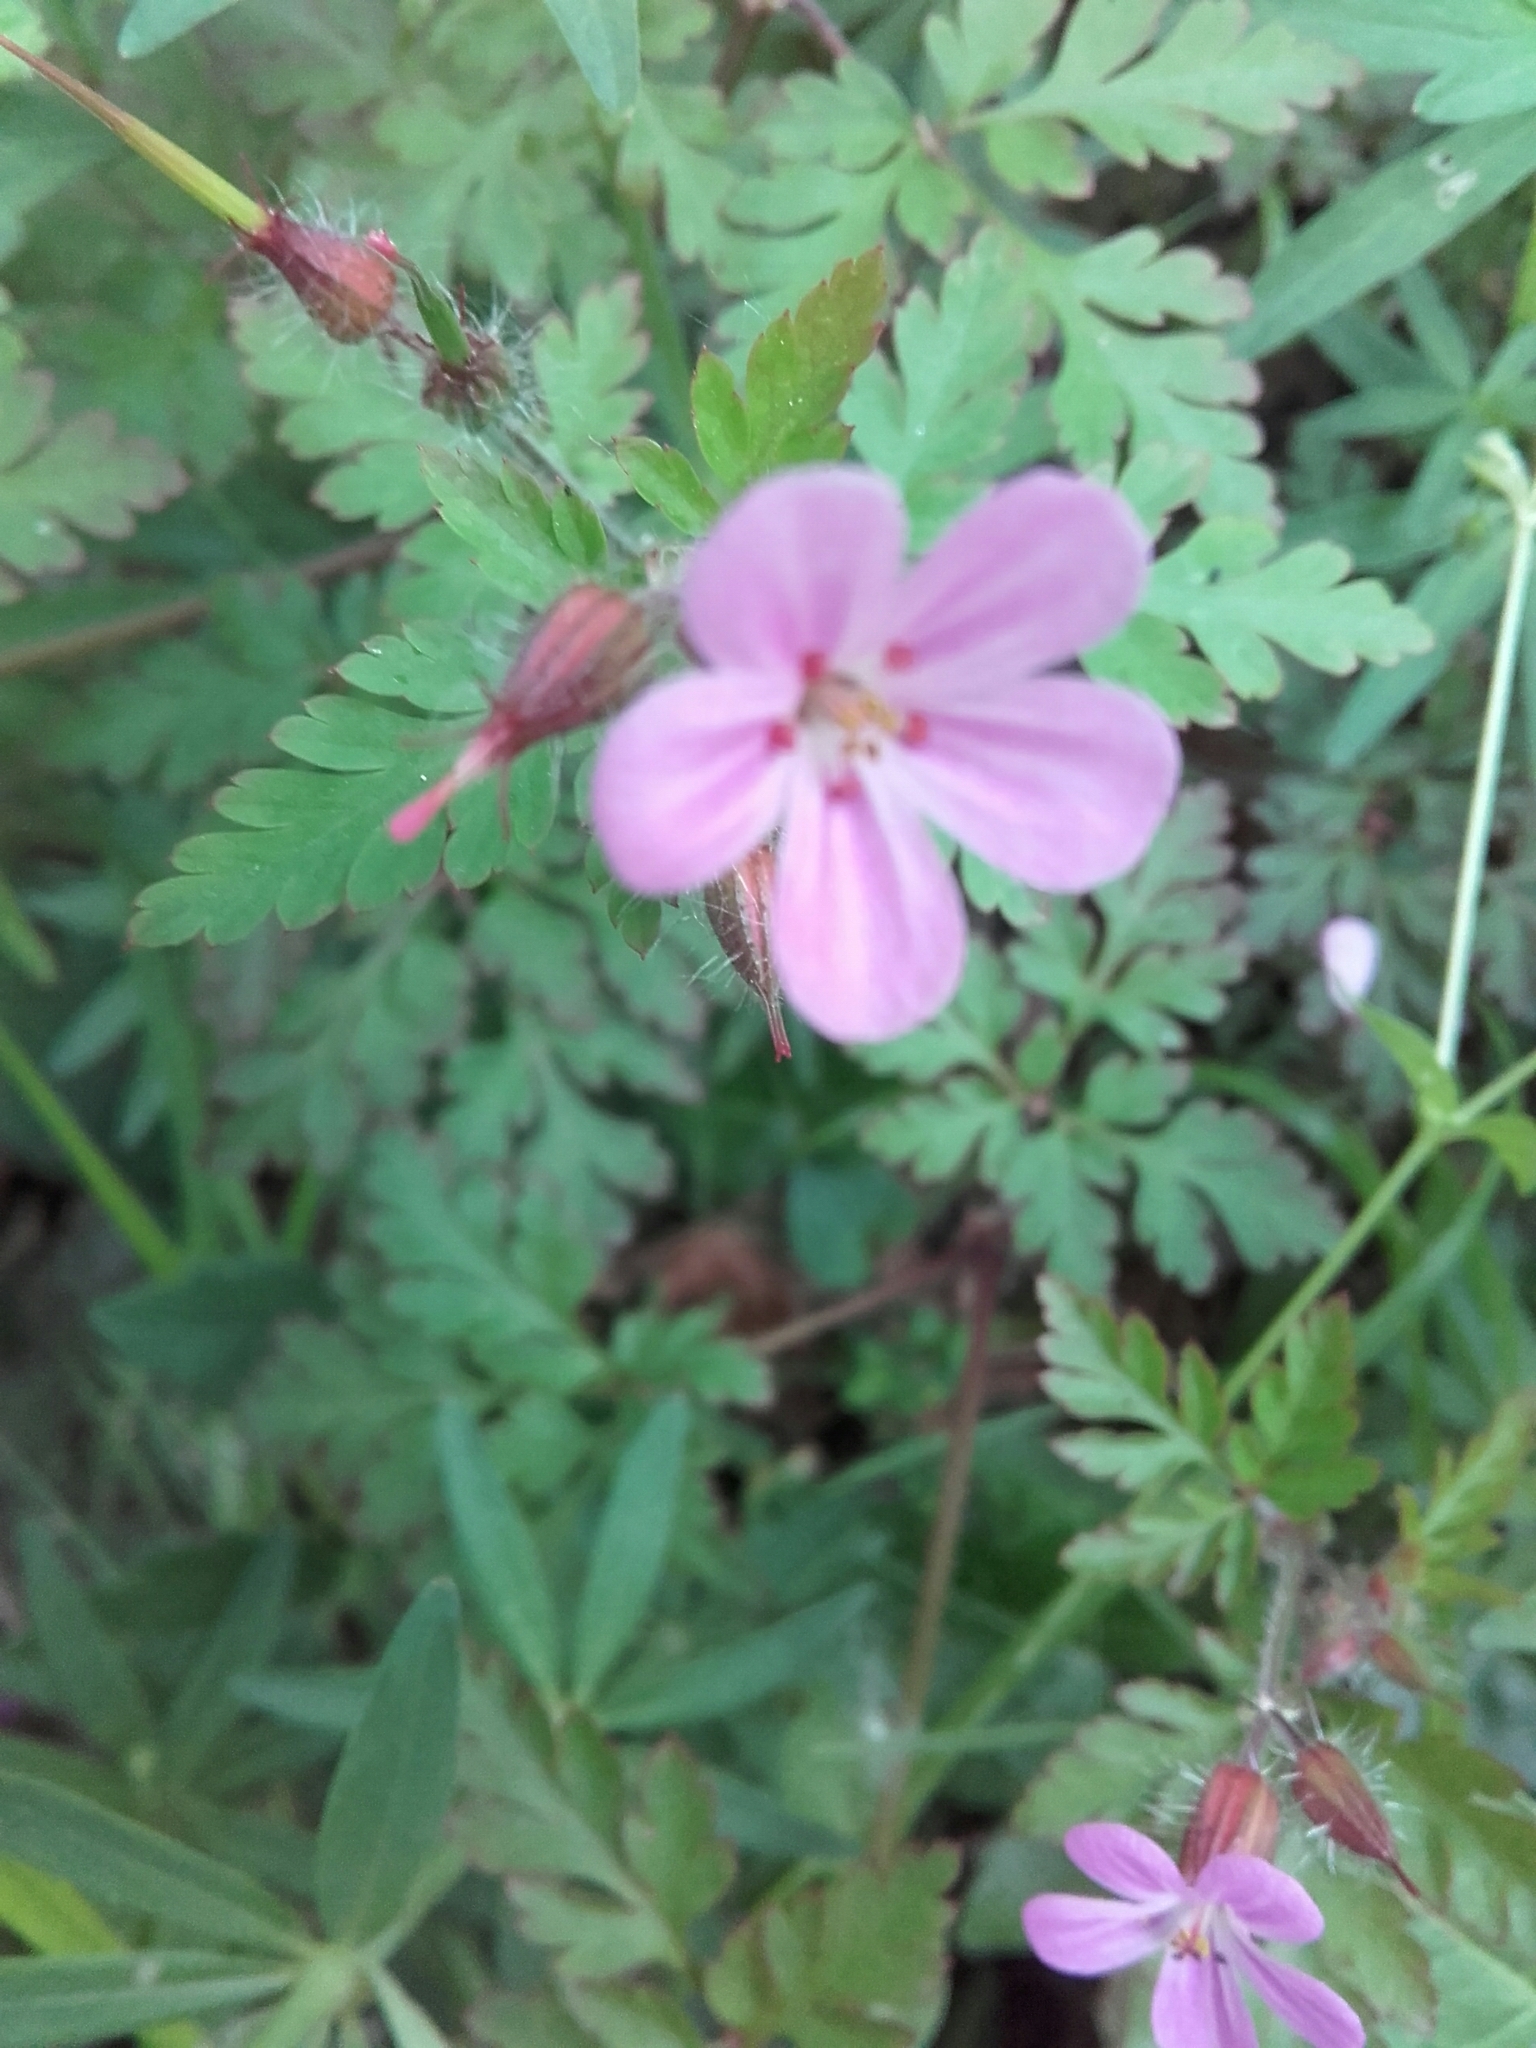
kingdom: Plantae
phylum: Tracheophyta
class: Magnoliopsida
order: Geraniales
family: Geraniaceae
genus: Geranium
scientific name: Geranium robertianum
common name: Herb-robert
